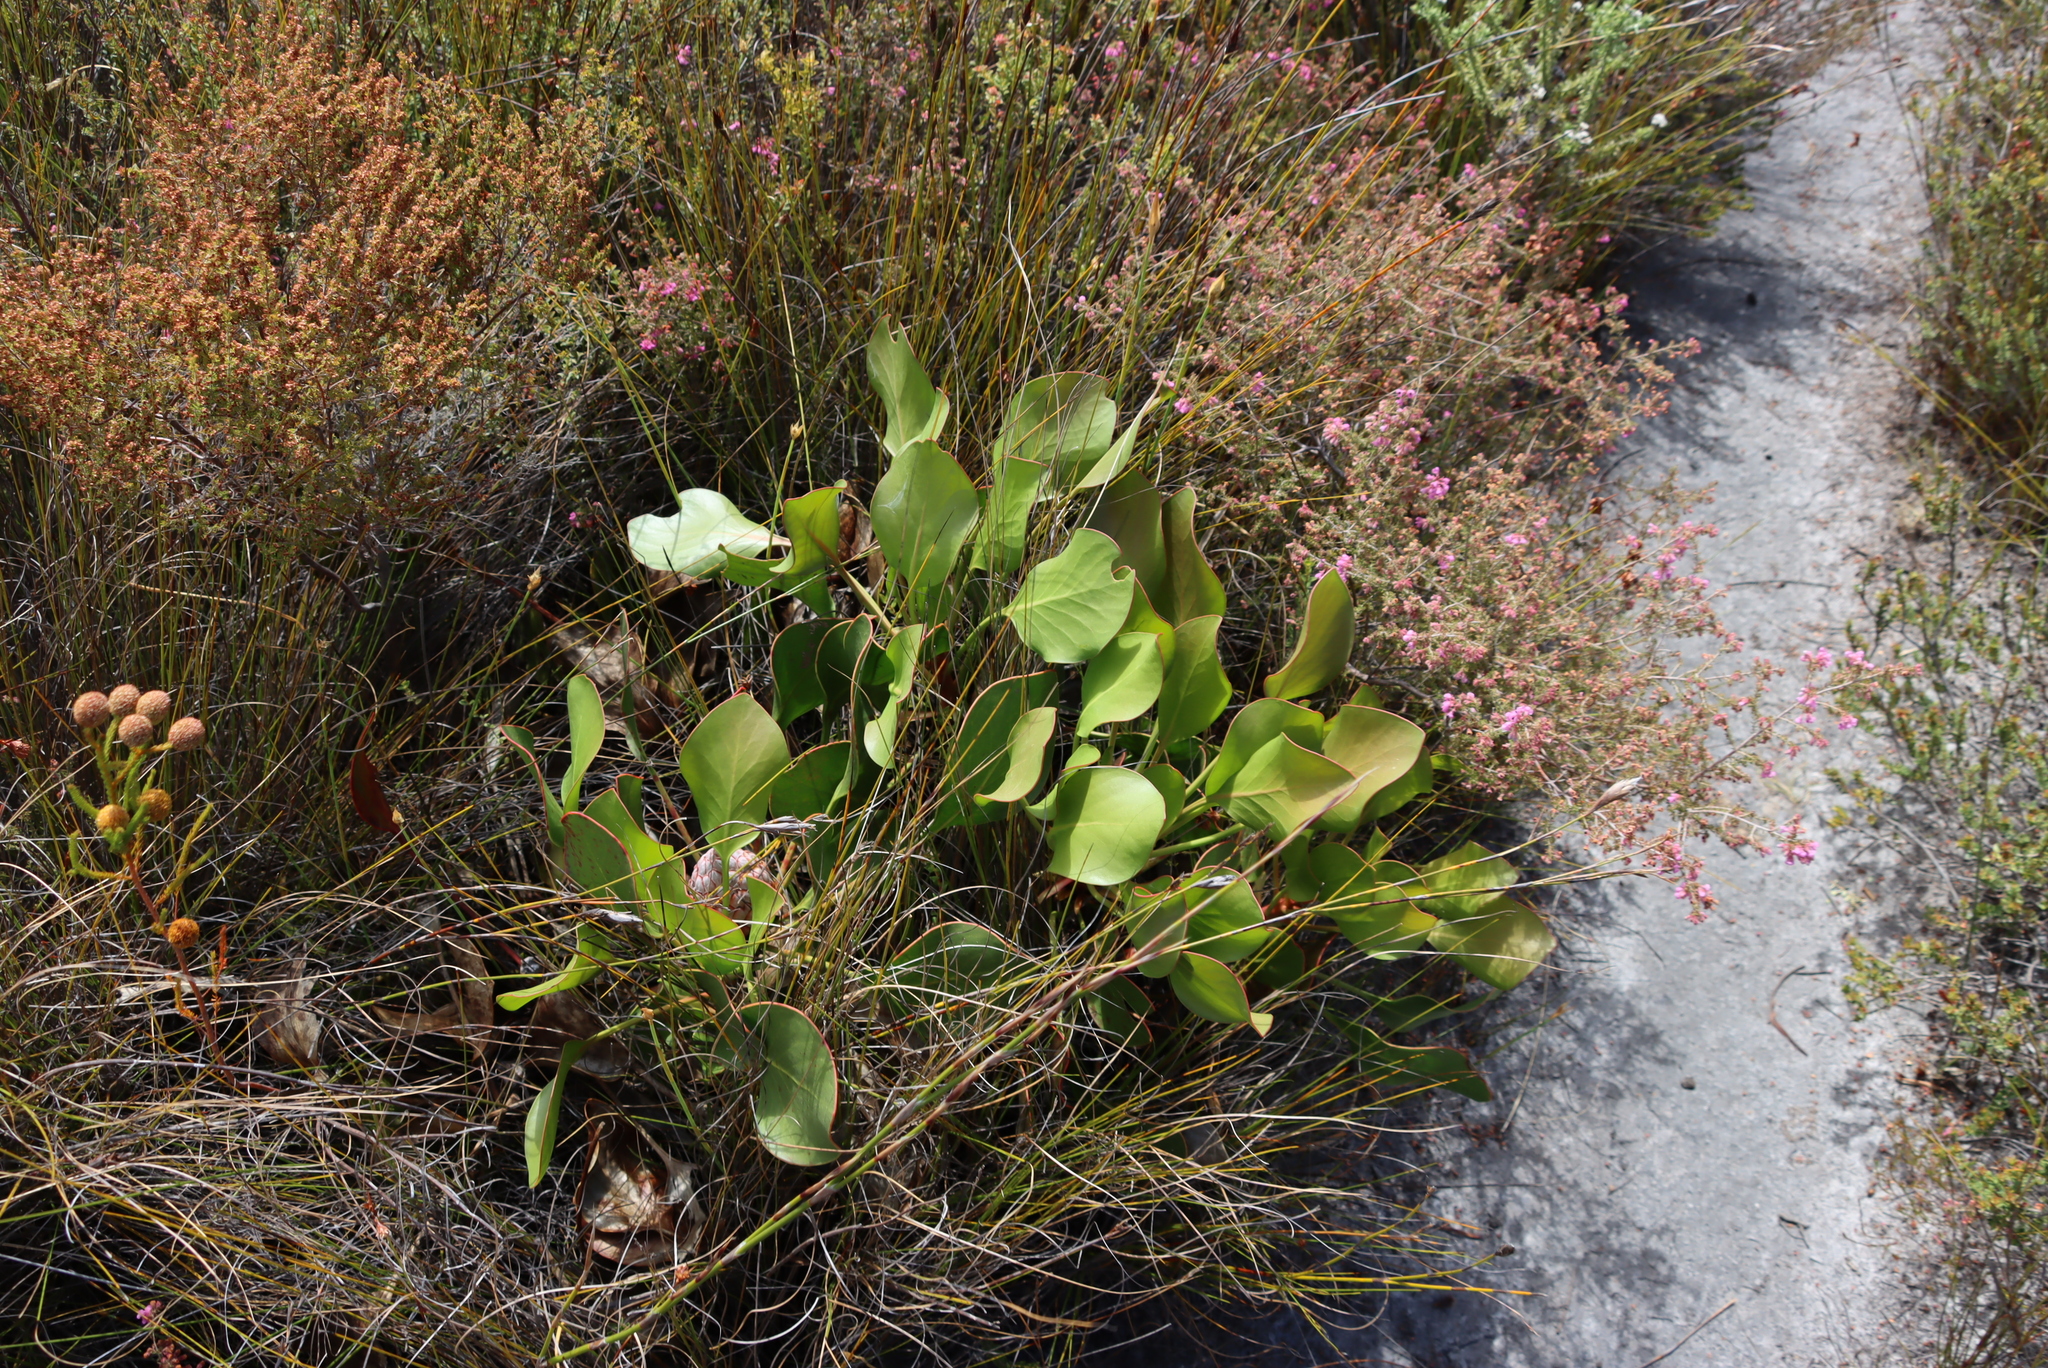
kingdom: Plantae
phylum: Tracheophyta
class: Magnoliopsida
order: Proteales
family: Proteaceae
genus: Protea
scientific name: Protea cynaroides
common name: King protea
